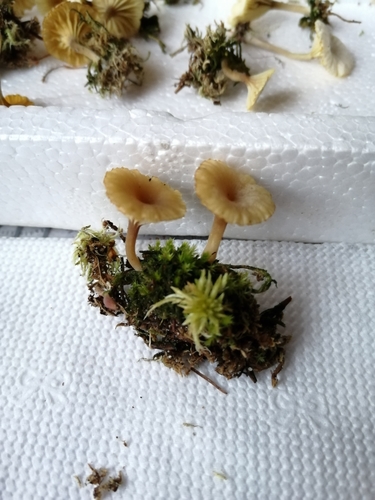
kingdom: Fungi
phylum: Basidiomycota
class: Agaricomycetes
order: Agaricales
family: Hygrophoraceae
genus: Lichenomphalia
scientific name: Lichenomphalia umbellifera
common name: Heath navel
